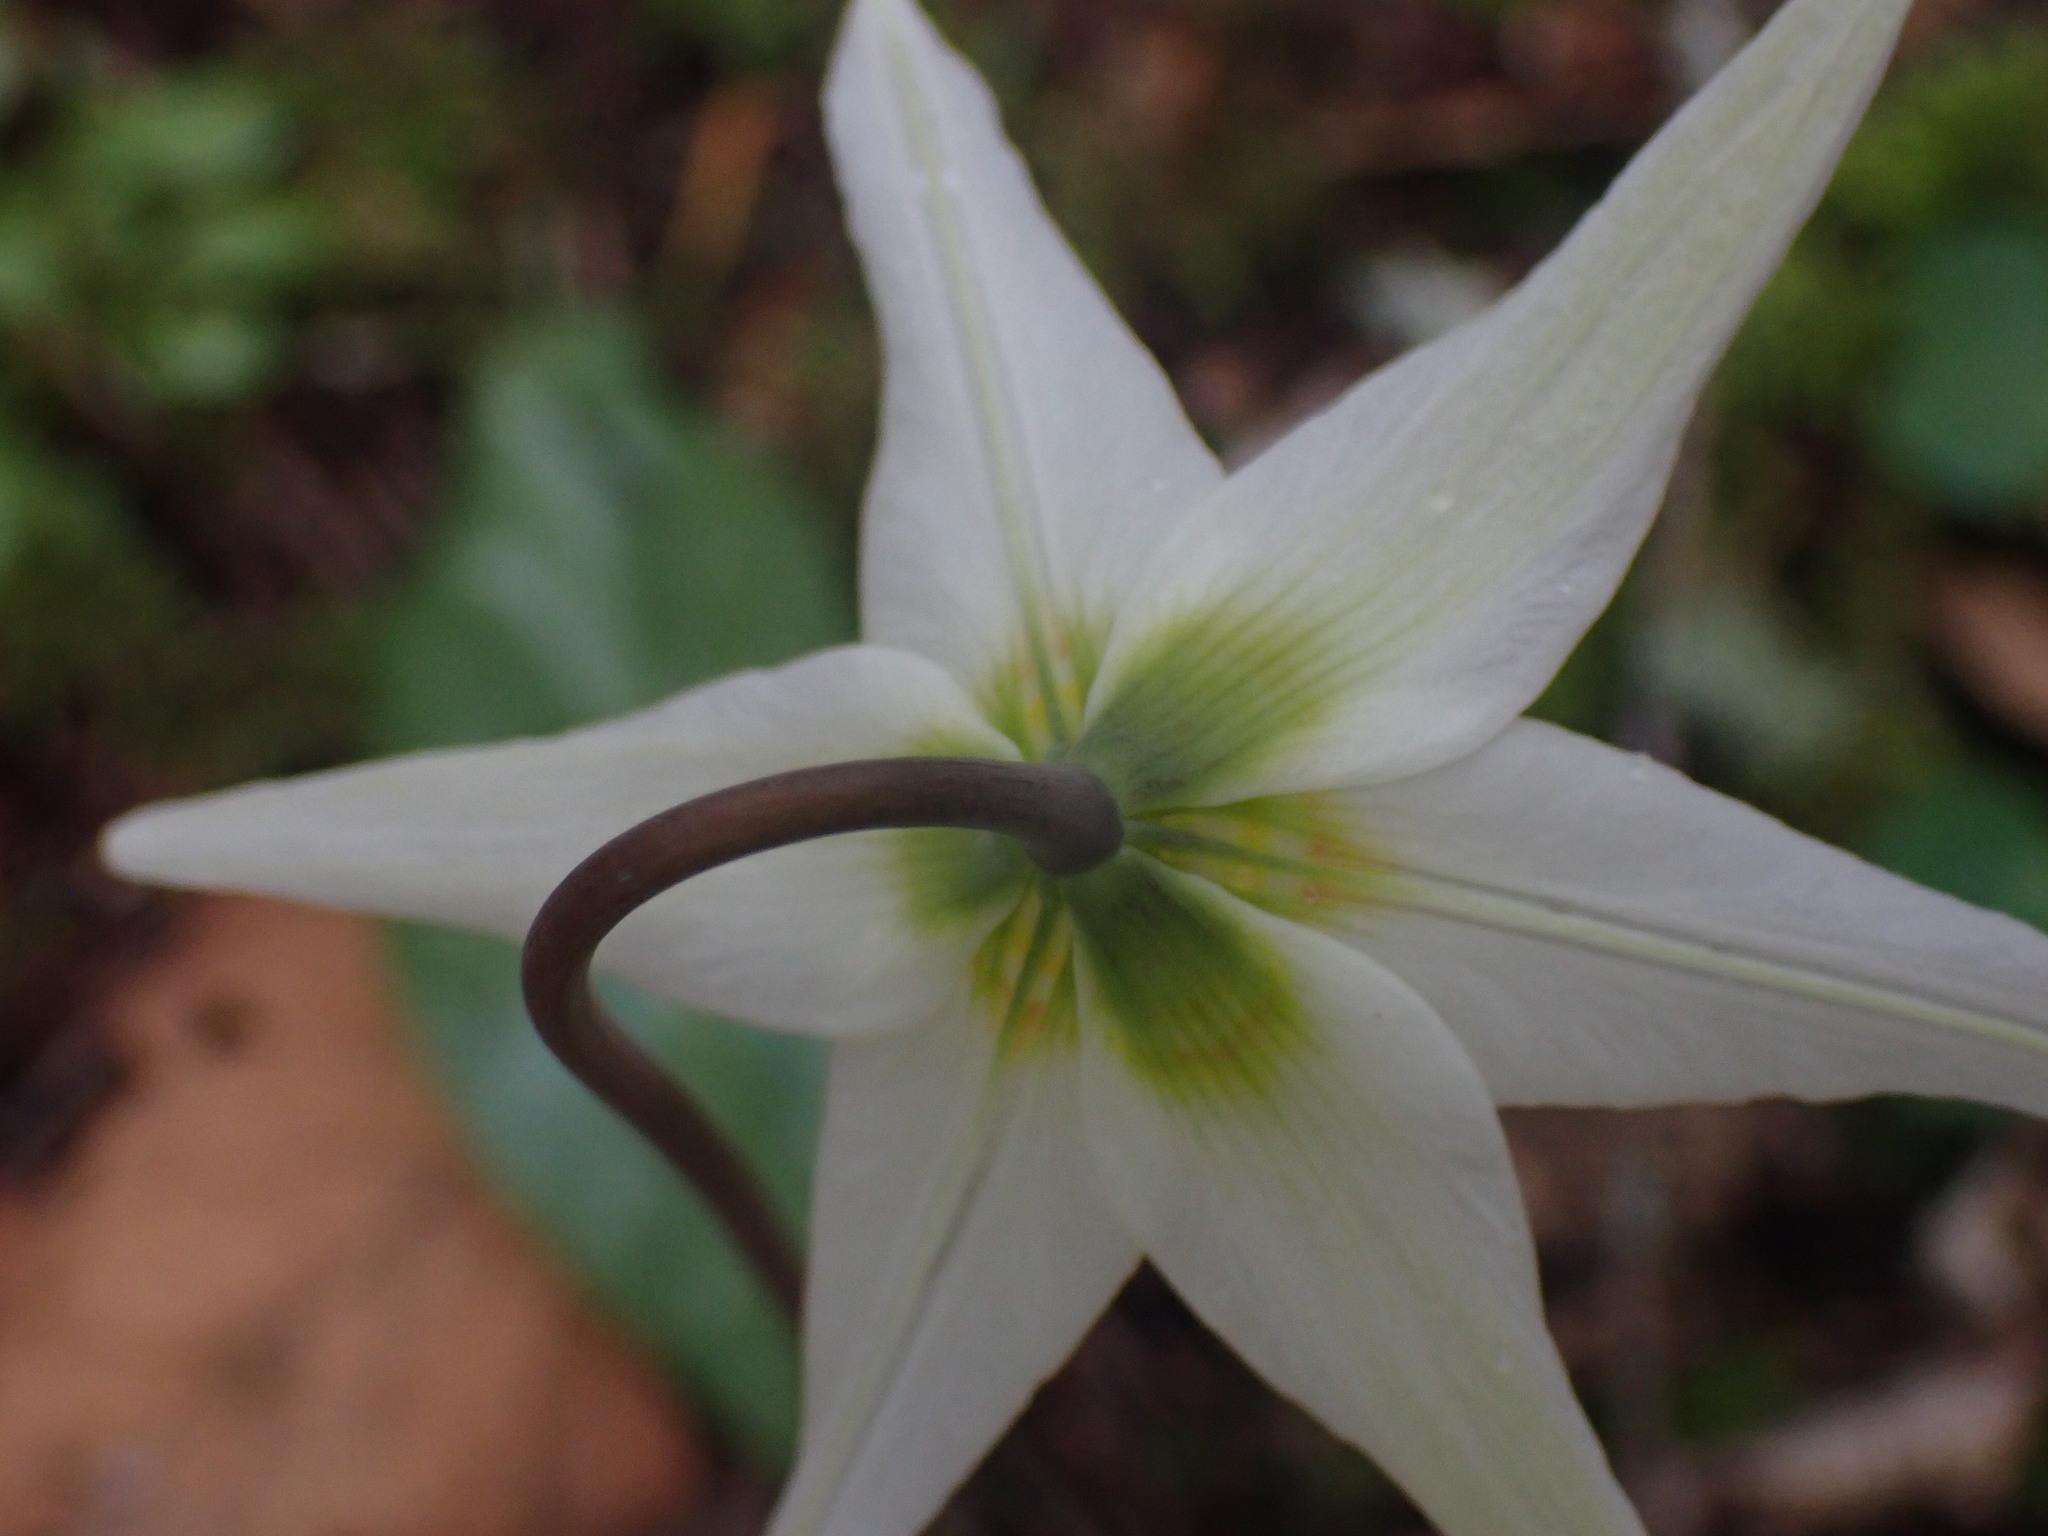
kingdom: Plantae
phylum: Tracheophyta
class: Liliopsida
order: Liliales
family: Liliaceae
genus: Erythronium
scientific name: Erythronium oregonum
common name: Giant adder's-tongue
